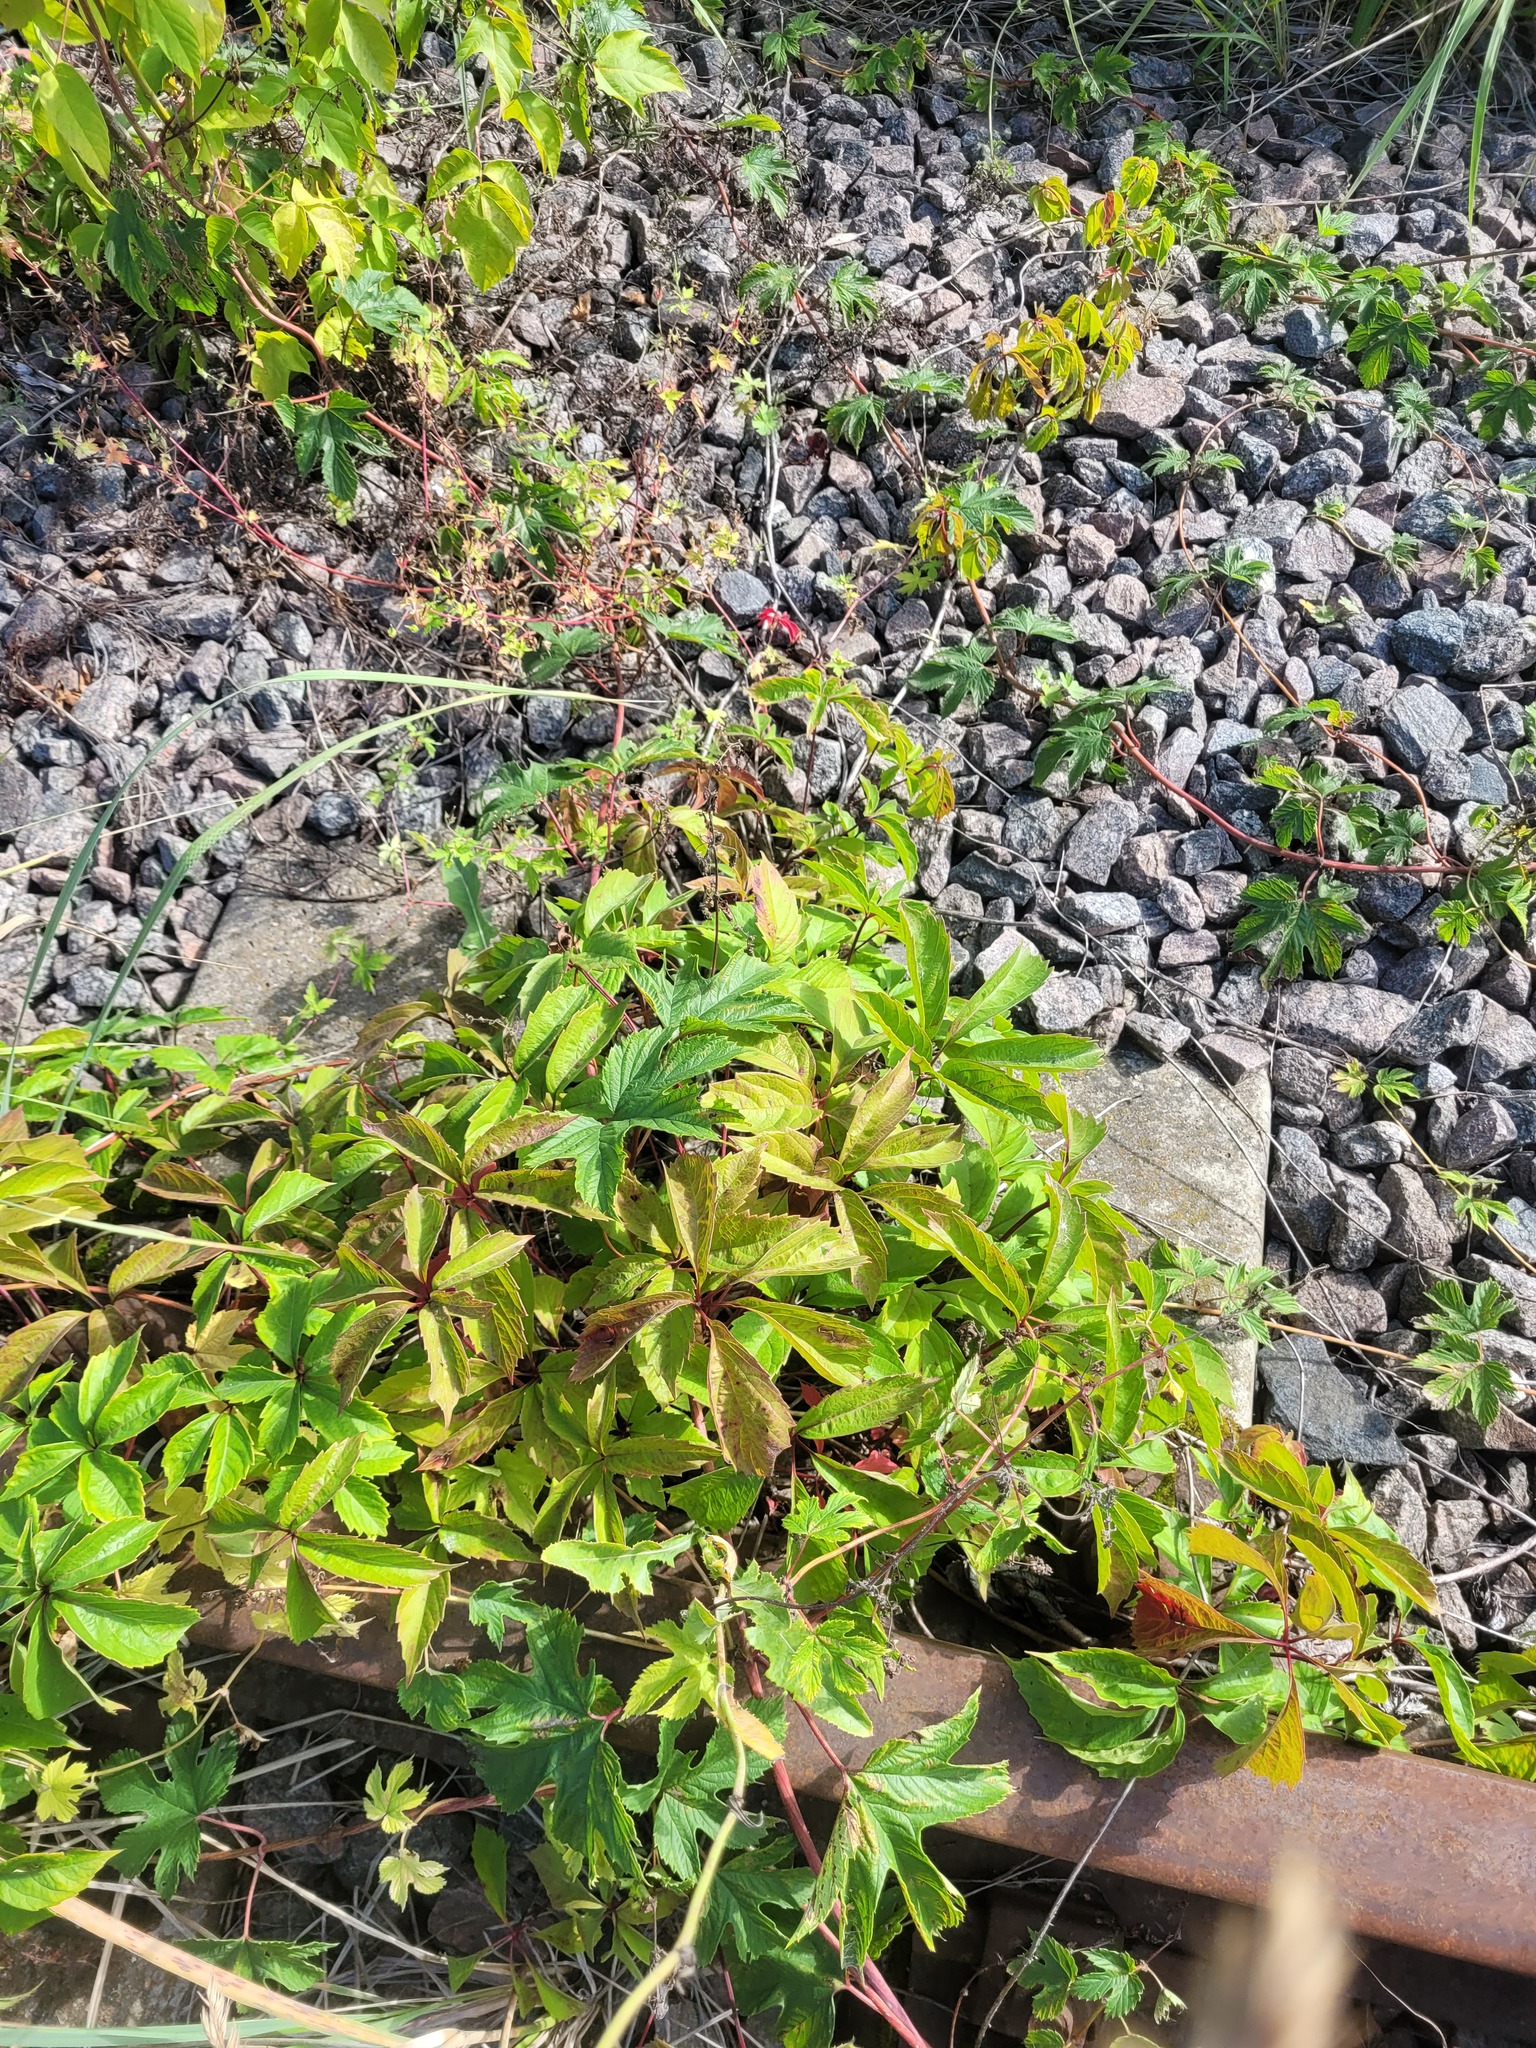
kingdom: Plantae
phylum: Tracheophyta
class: Magnoliopsida
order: Vitales
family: Vitaceae
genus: Parthenocissus
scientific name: Parthenocissus inserta
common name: False virginia-creeper
